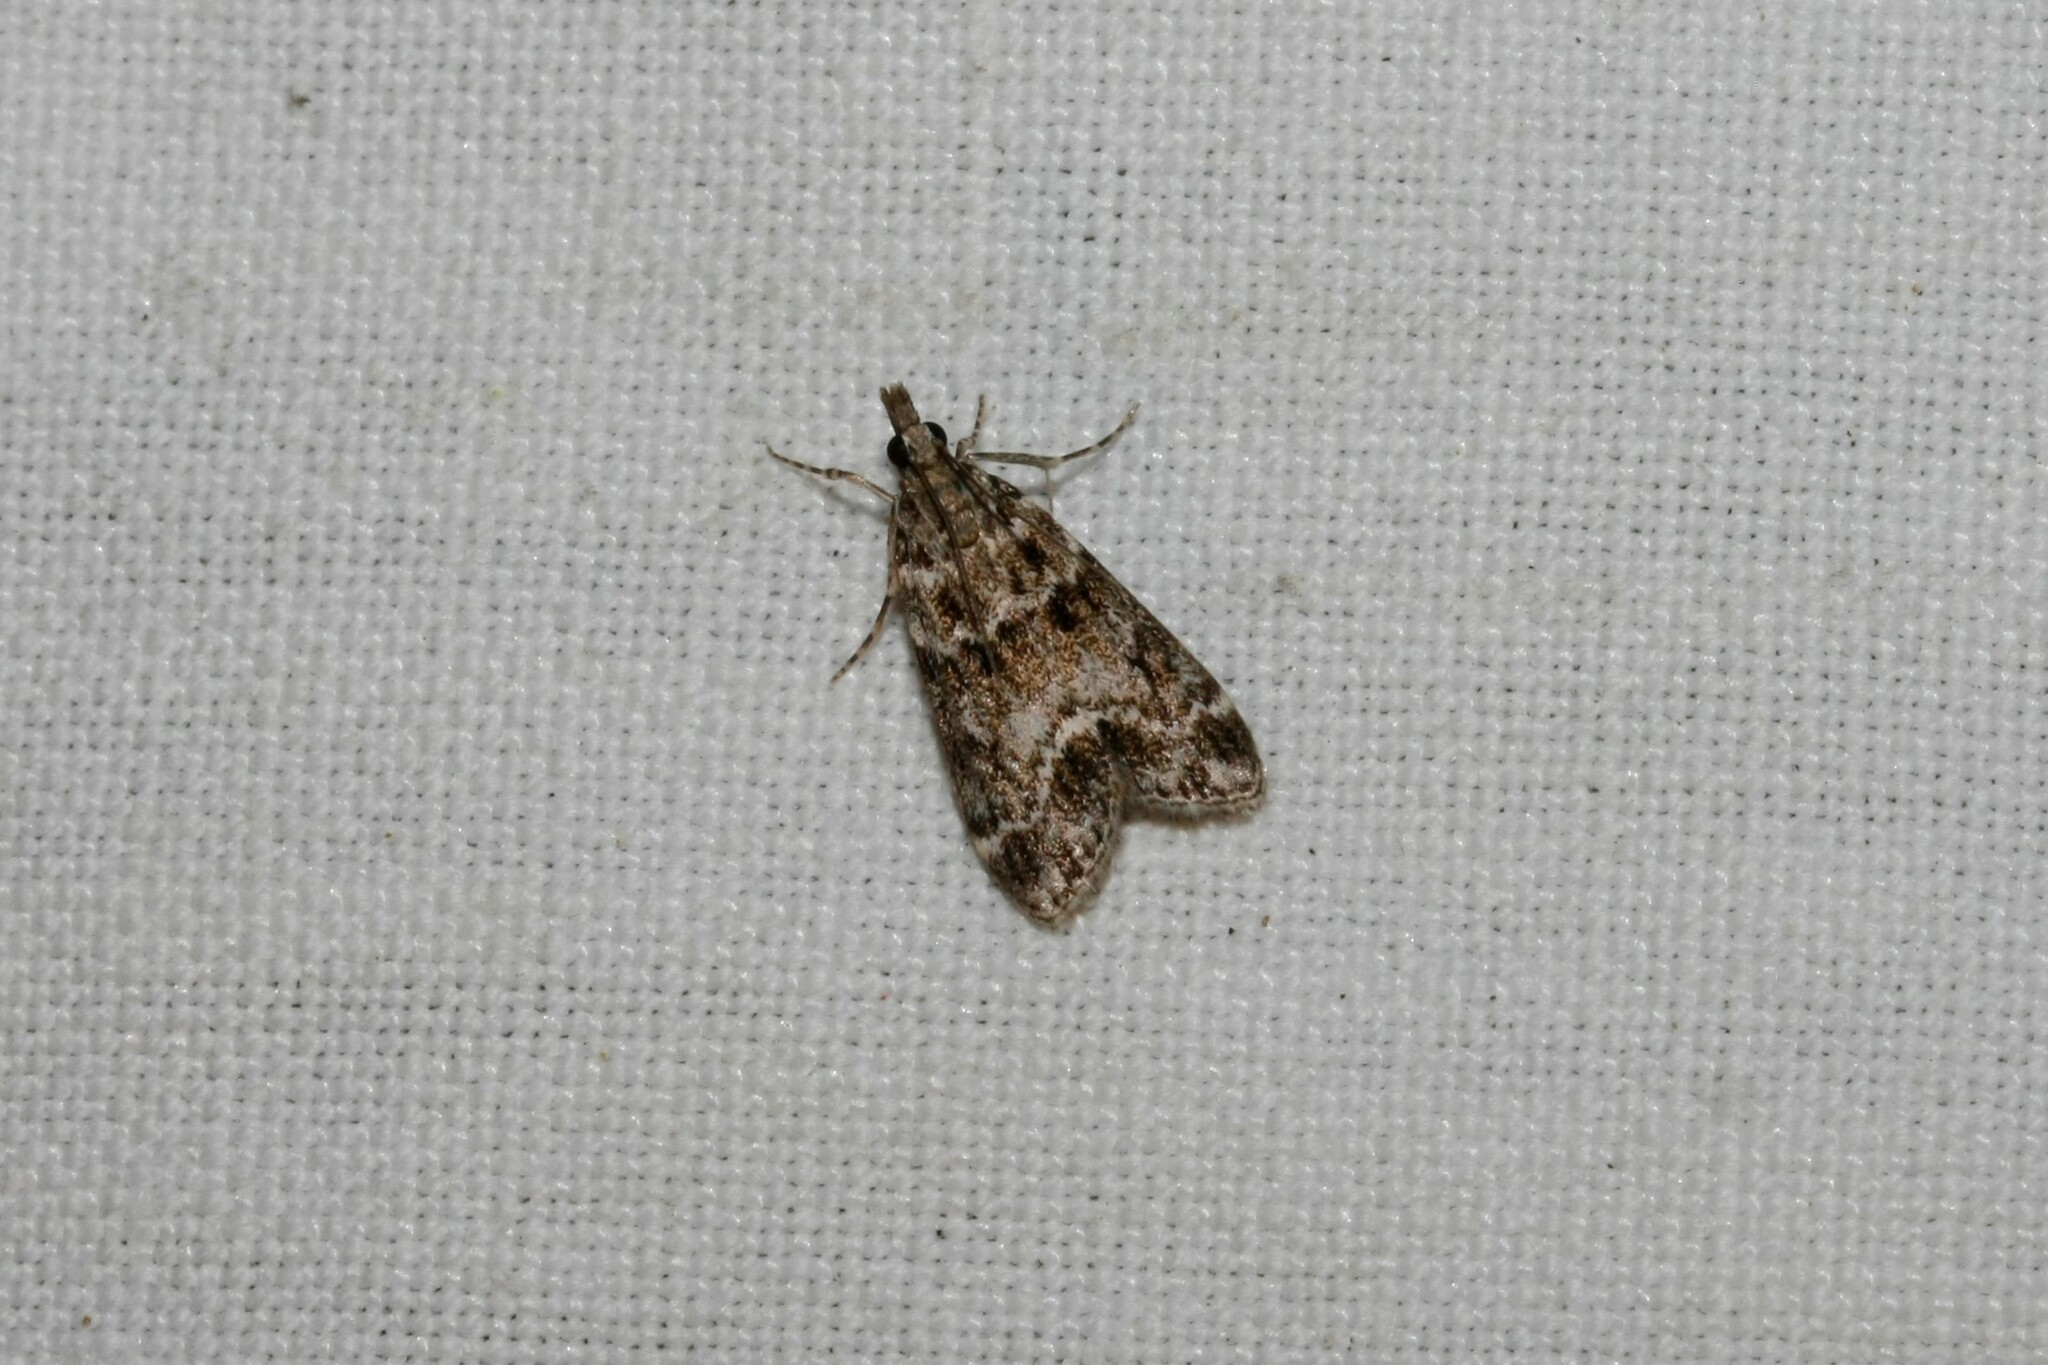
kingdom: Animalia
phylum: Arthropoda
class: Insecta
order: Lepidoptera
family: Crambidae
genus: Eudonia
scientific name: Eudonia mercurella
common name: Small grey
